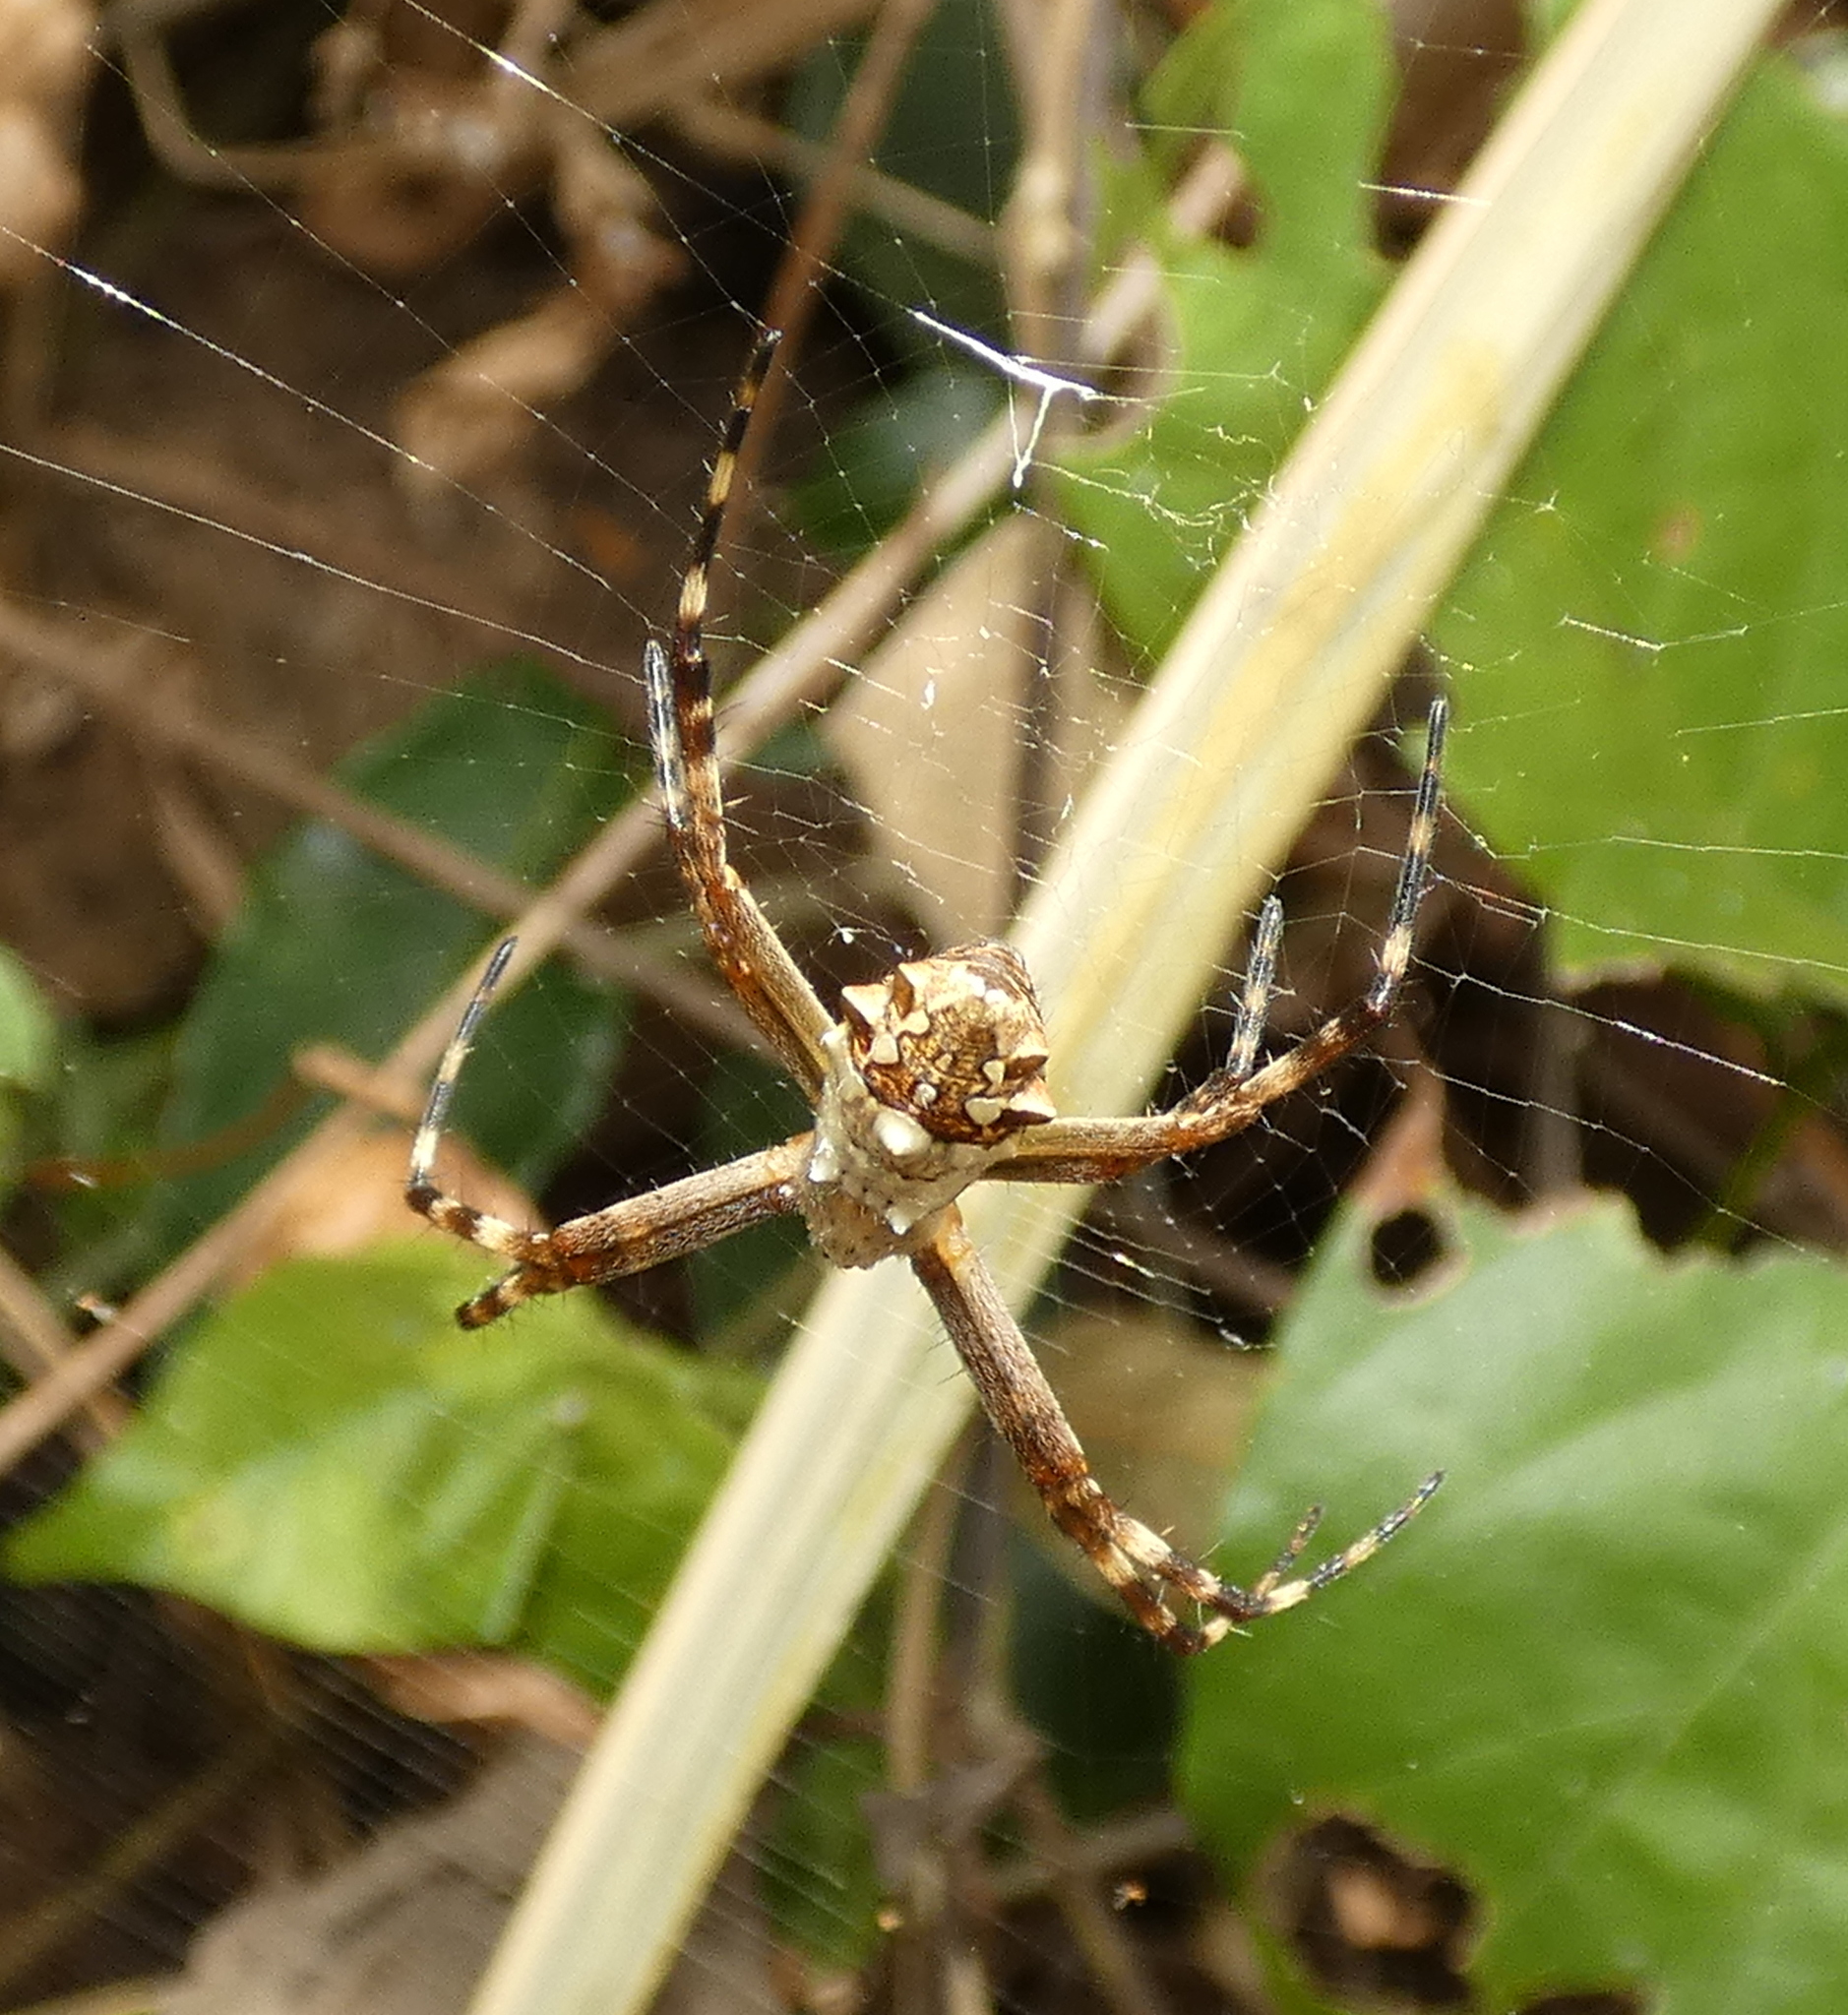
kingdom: Animalia
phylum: Arthropoda
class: Arachnida
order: Araneae
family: Araneidae
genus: Argiope
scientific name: Argiope argentata
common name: Orb weavers
